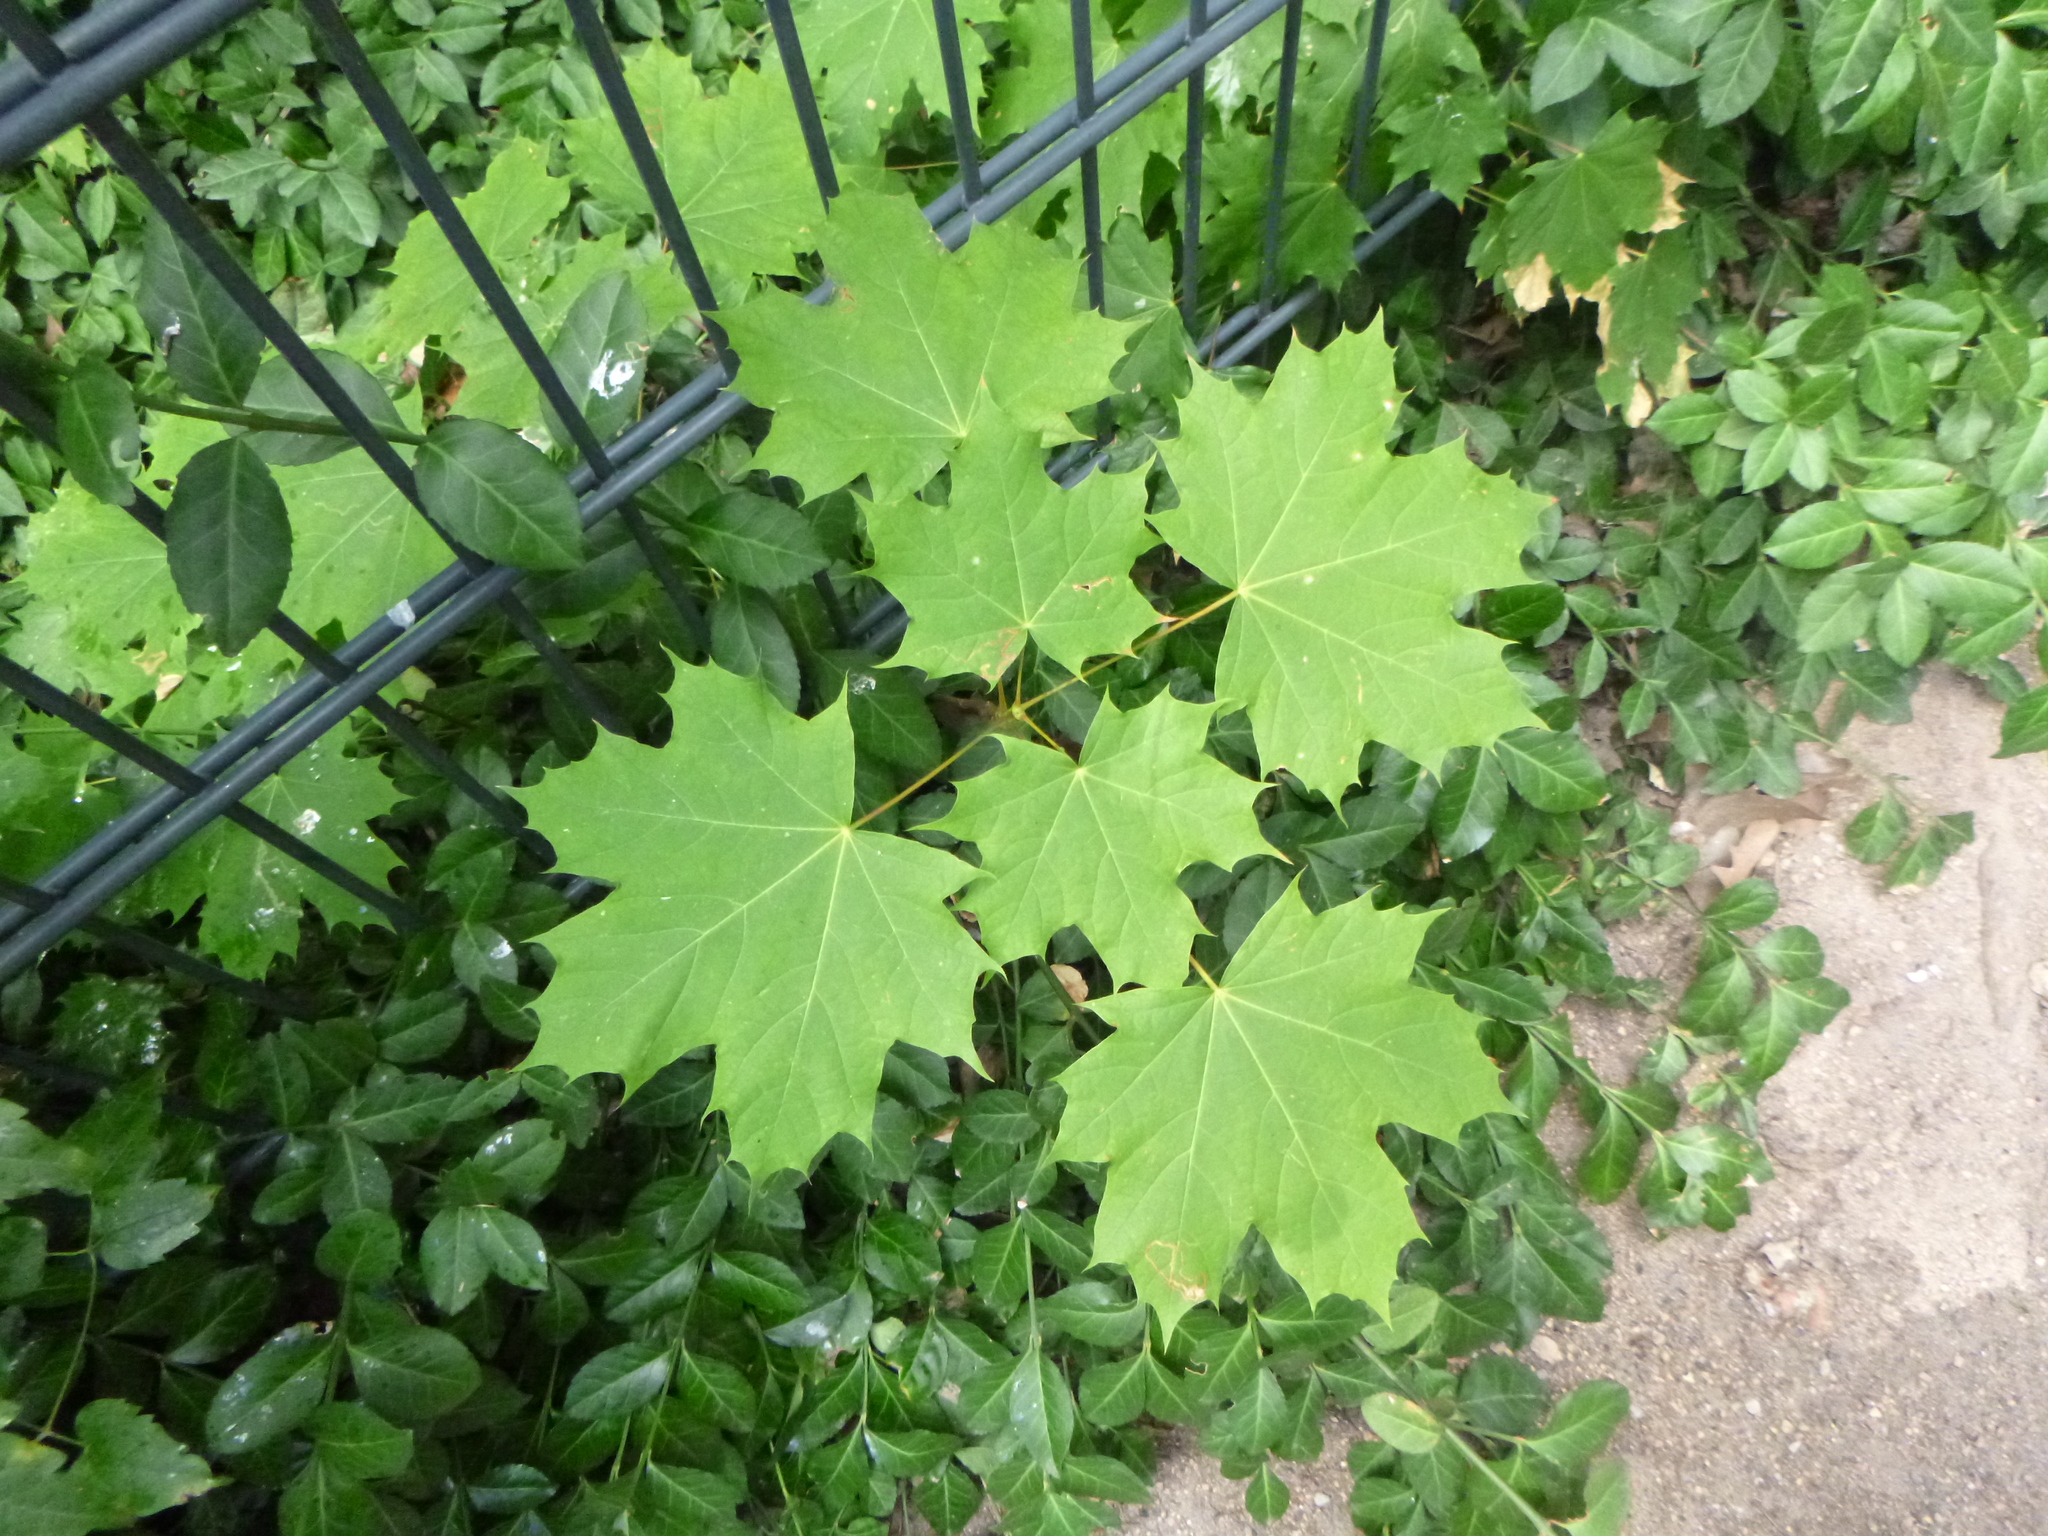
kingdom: Plantae
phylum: Tracheophyta
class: Magnoliopsida
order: Sapindales
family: Sapindaceae
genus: Acer
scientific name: Acer platanoides
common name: Norway maple
